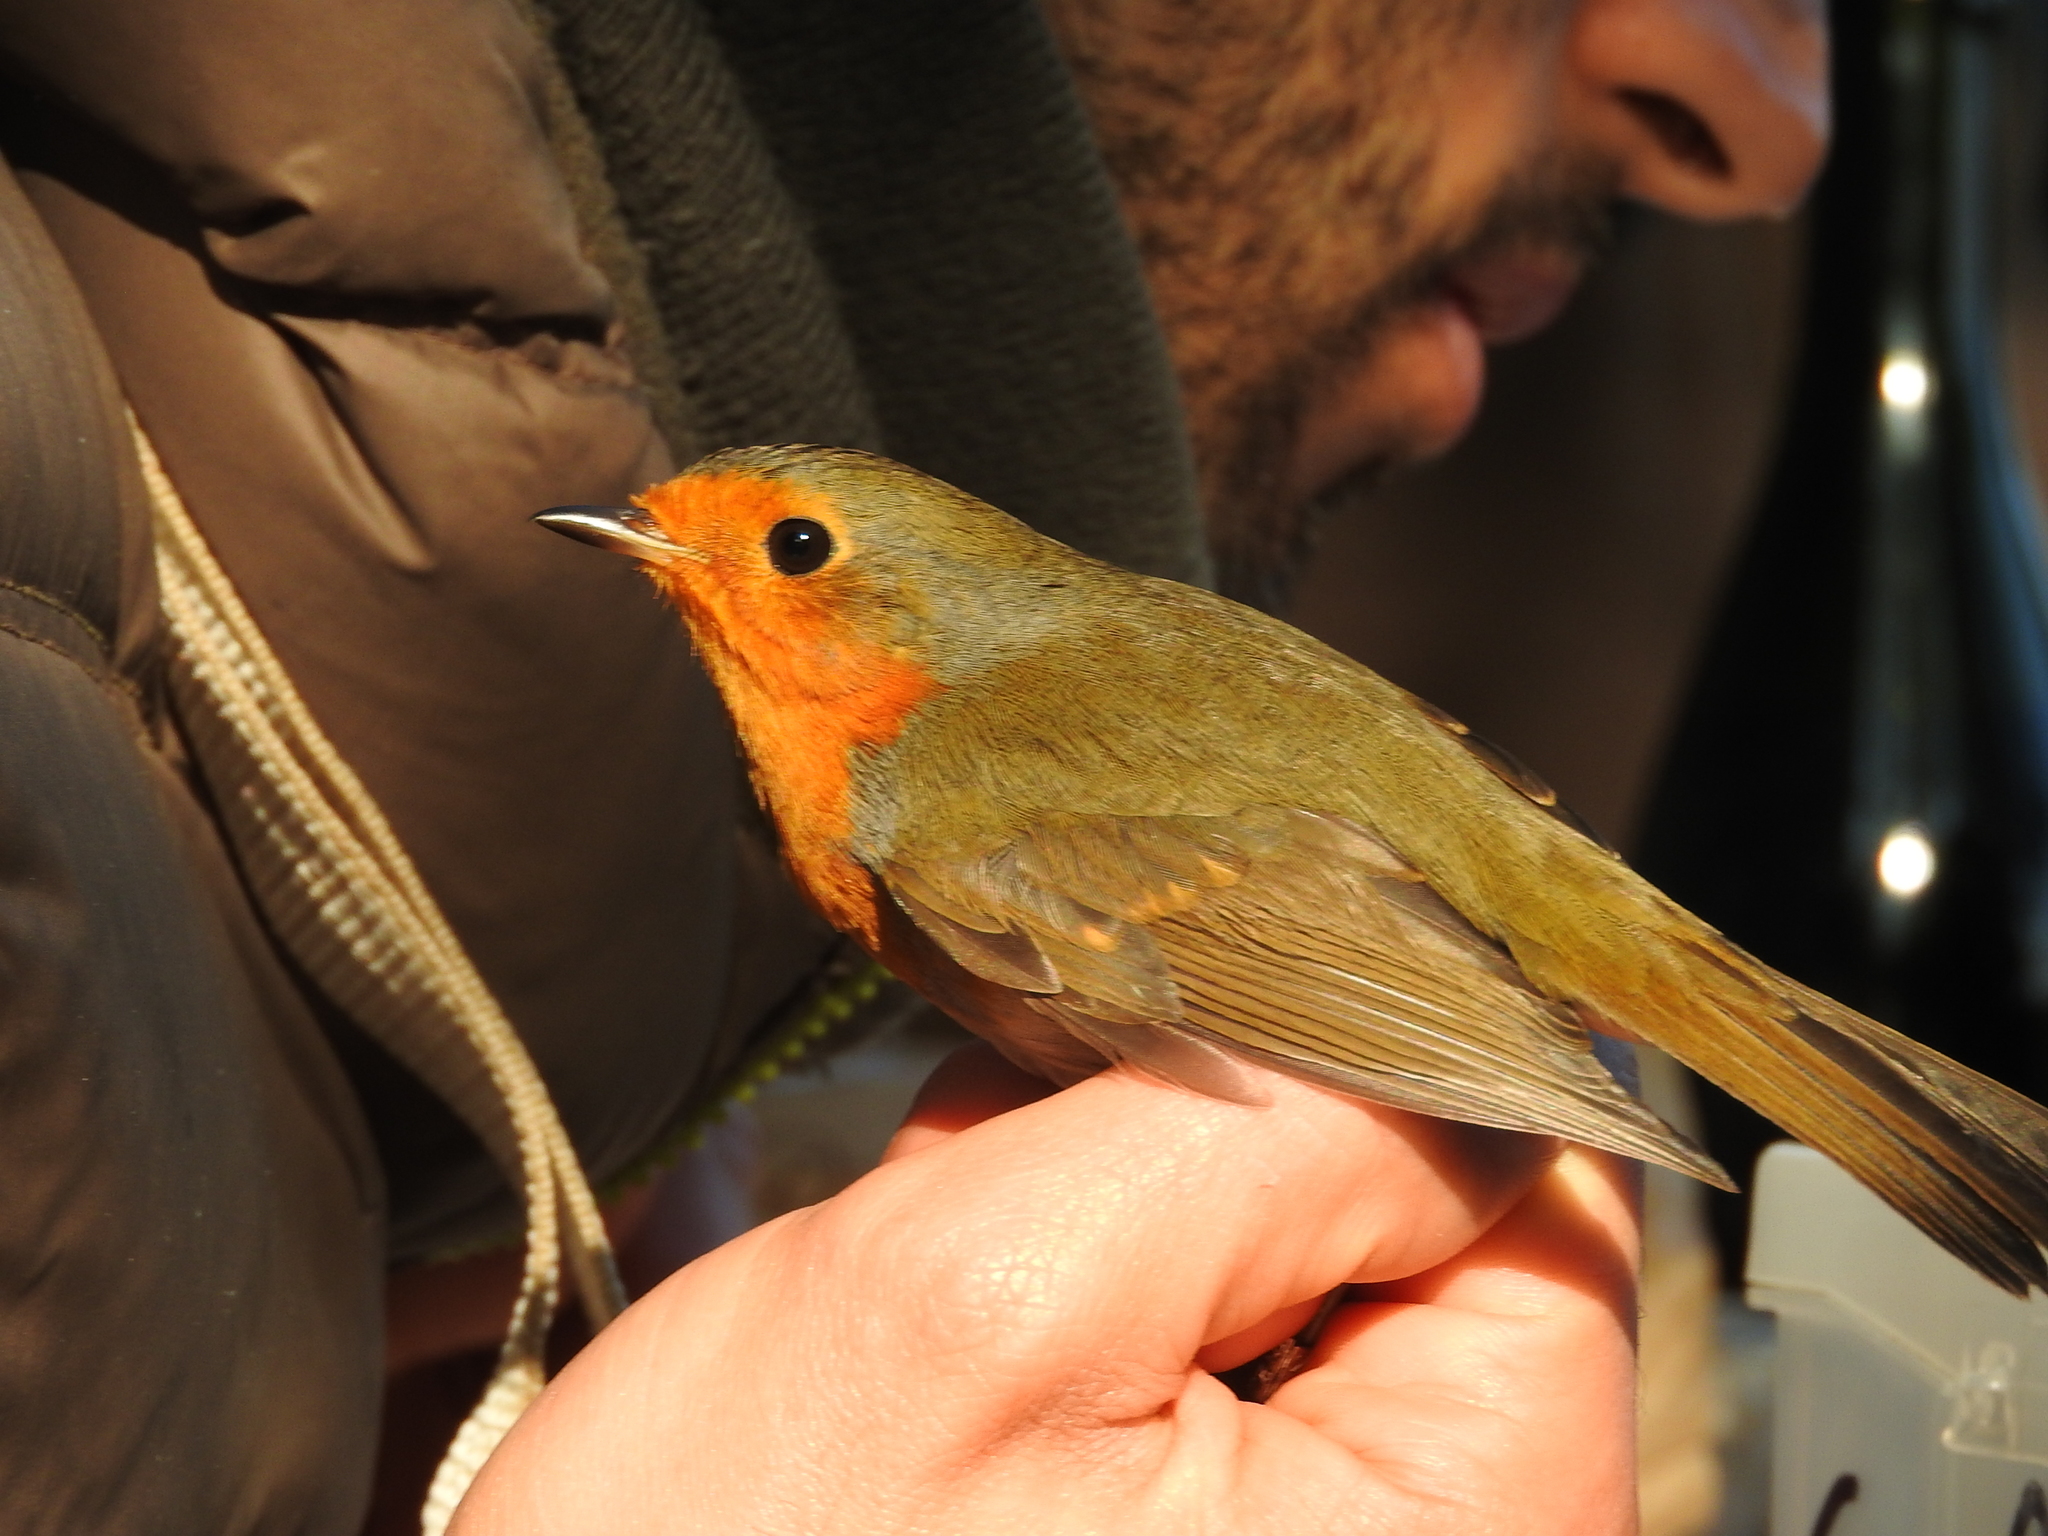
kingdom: Animalia
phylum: Chordata
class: Aves
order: Passeriformes
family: Muscicapidae
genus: Erithacus
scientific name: Erithacus rubecula
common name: European robin
